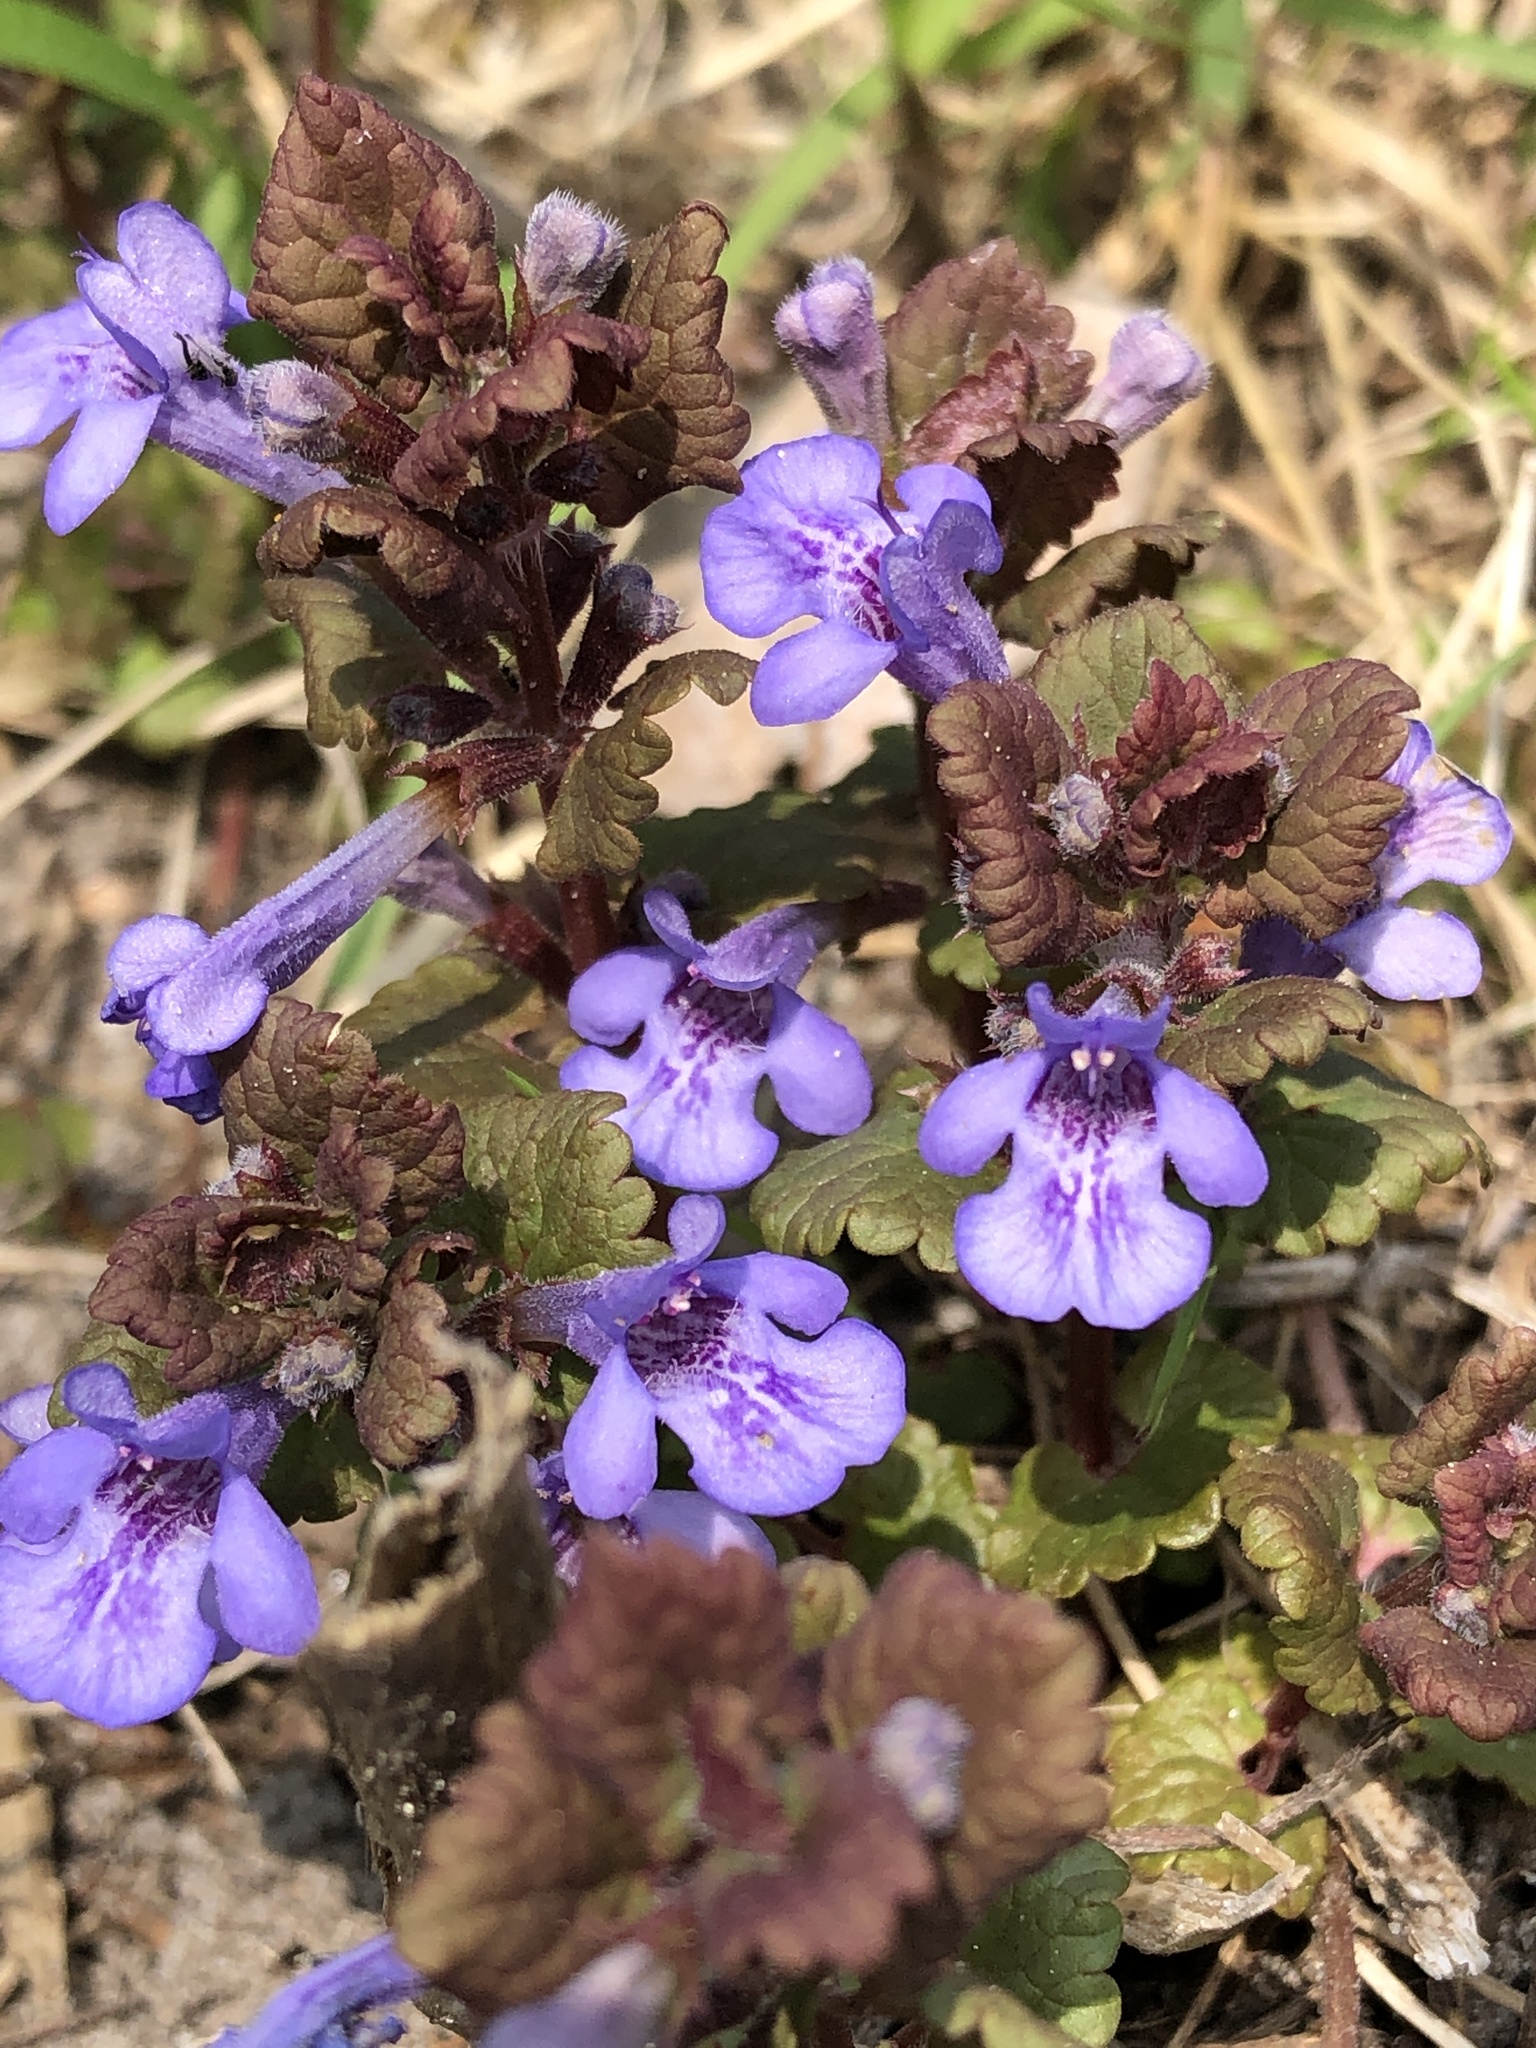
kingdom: Plantae
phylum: Tracheophyta
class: Magnoliopsida
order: Lamiales
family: Lamiaceae
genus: Glechoma
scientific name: Glechoma hederacea
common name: Ground ivy
